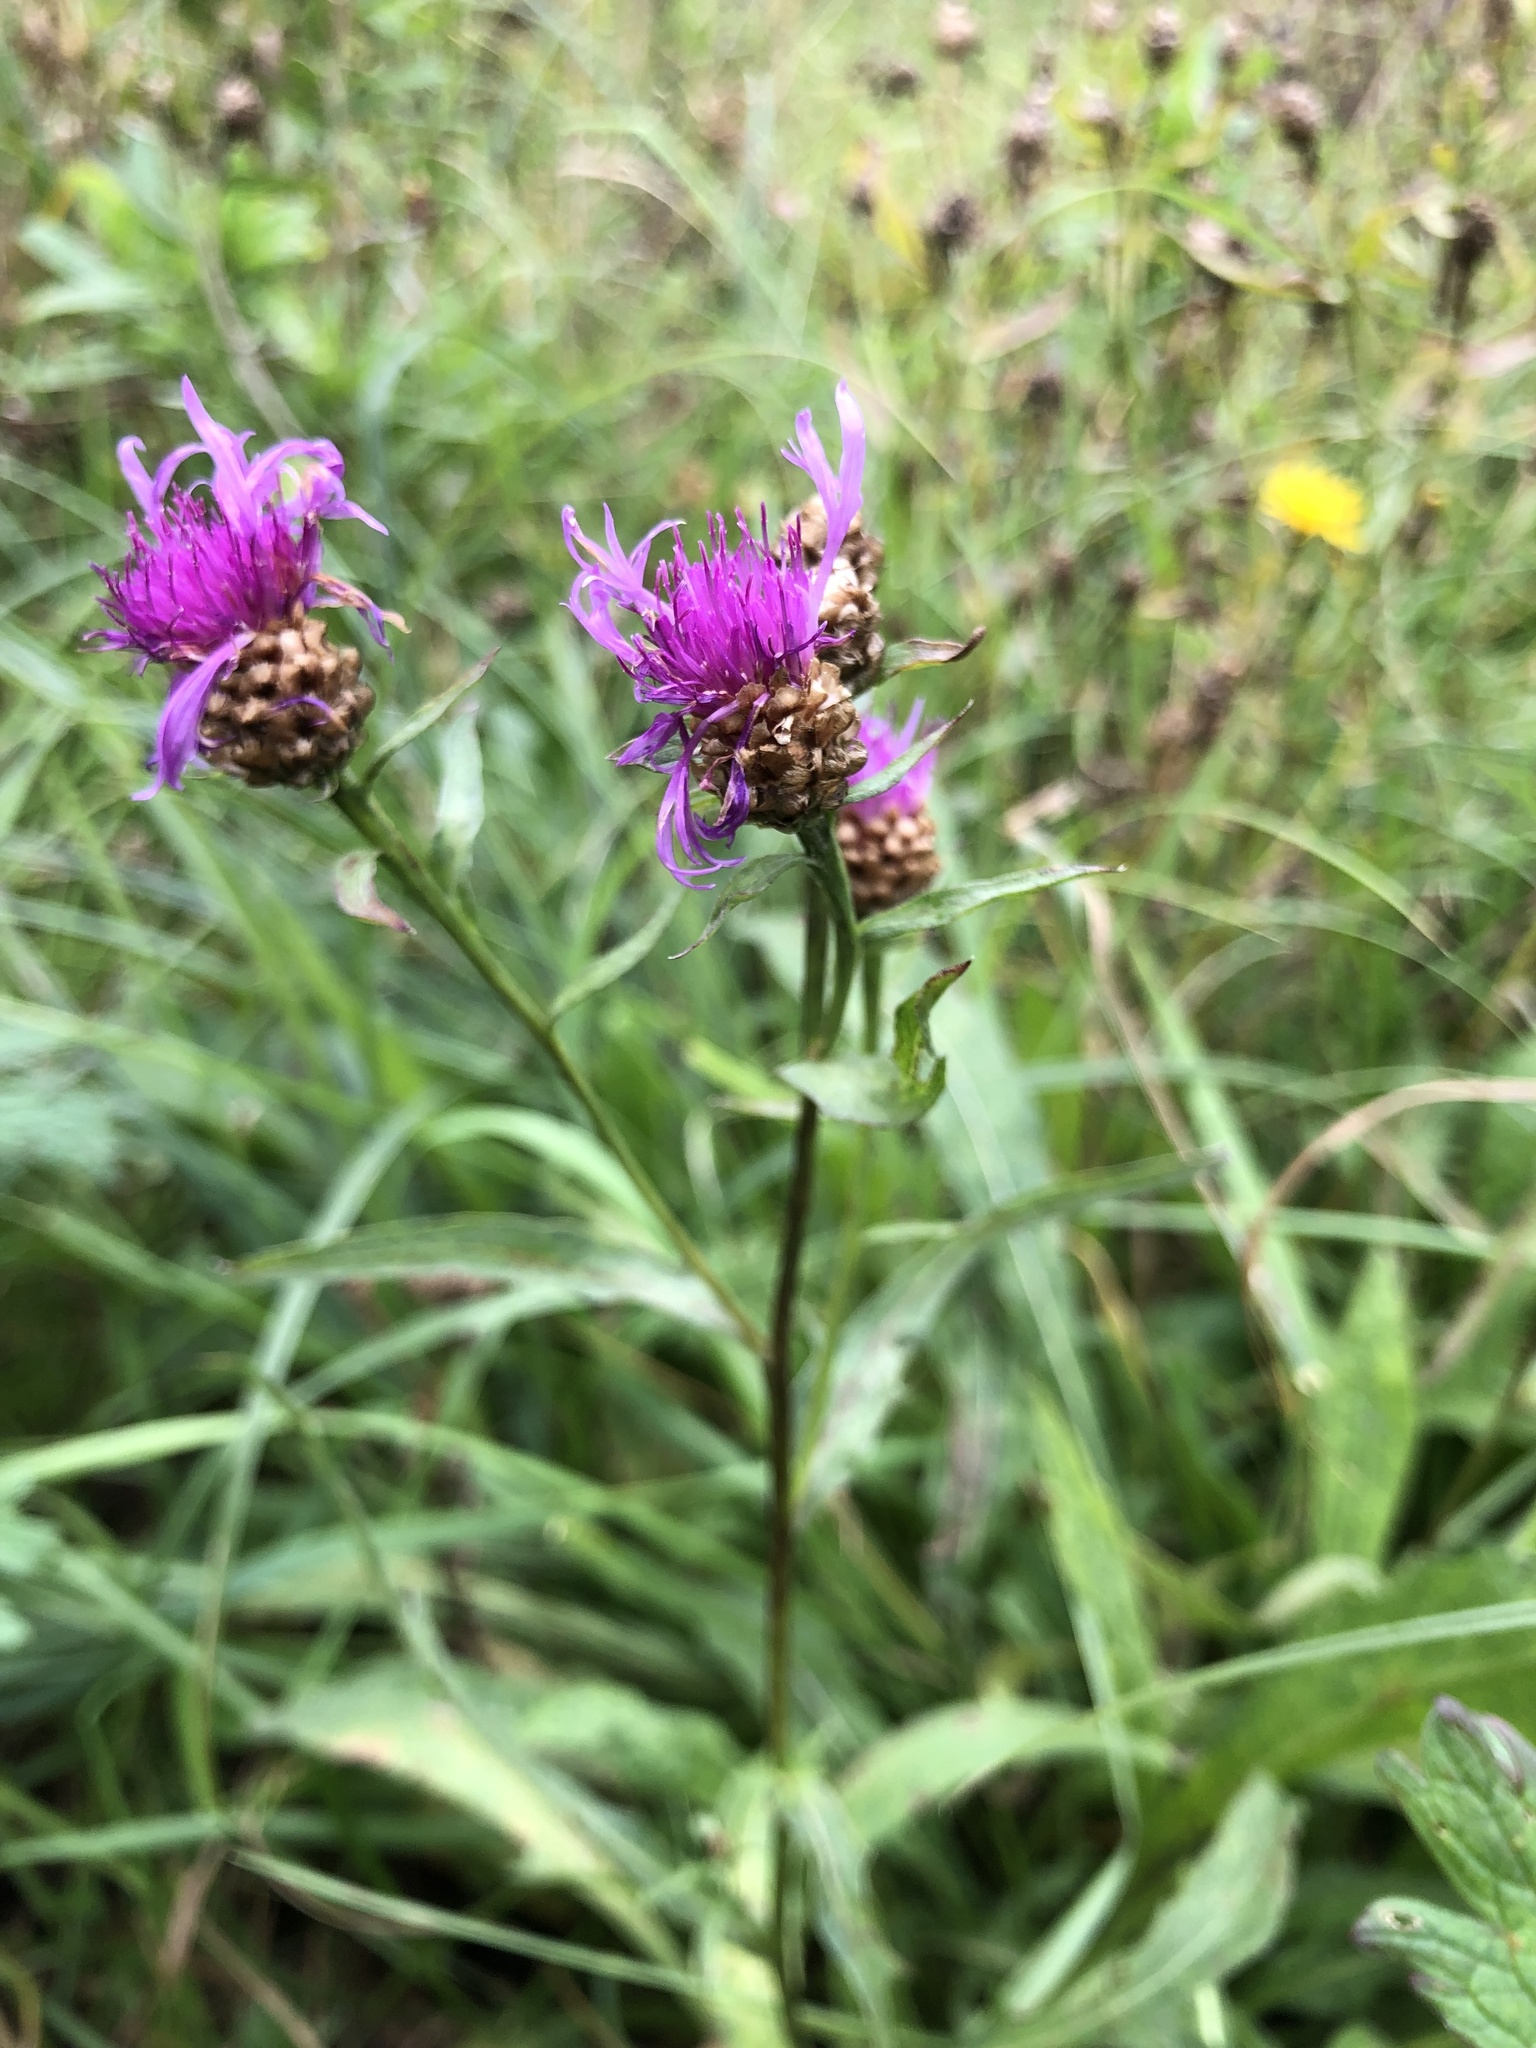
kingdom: Plantae
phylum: Tracheophyta
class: Magnoliopsida
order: Asterales
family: Asteraceae
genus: Centaurea
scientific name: Centaurea jacea
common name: Brown knapweed
